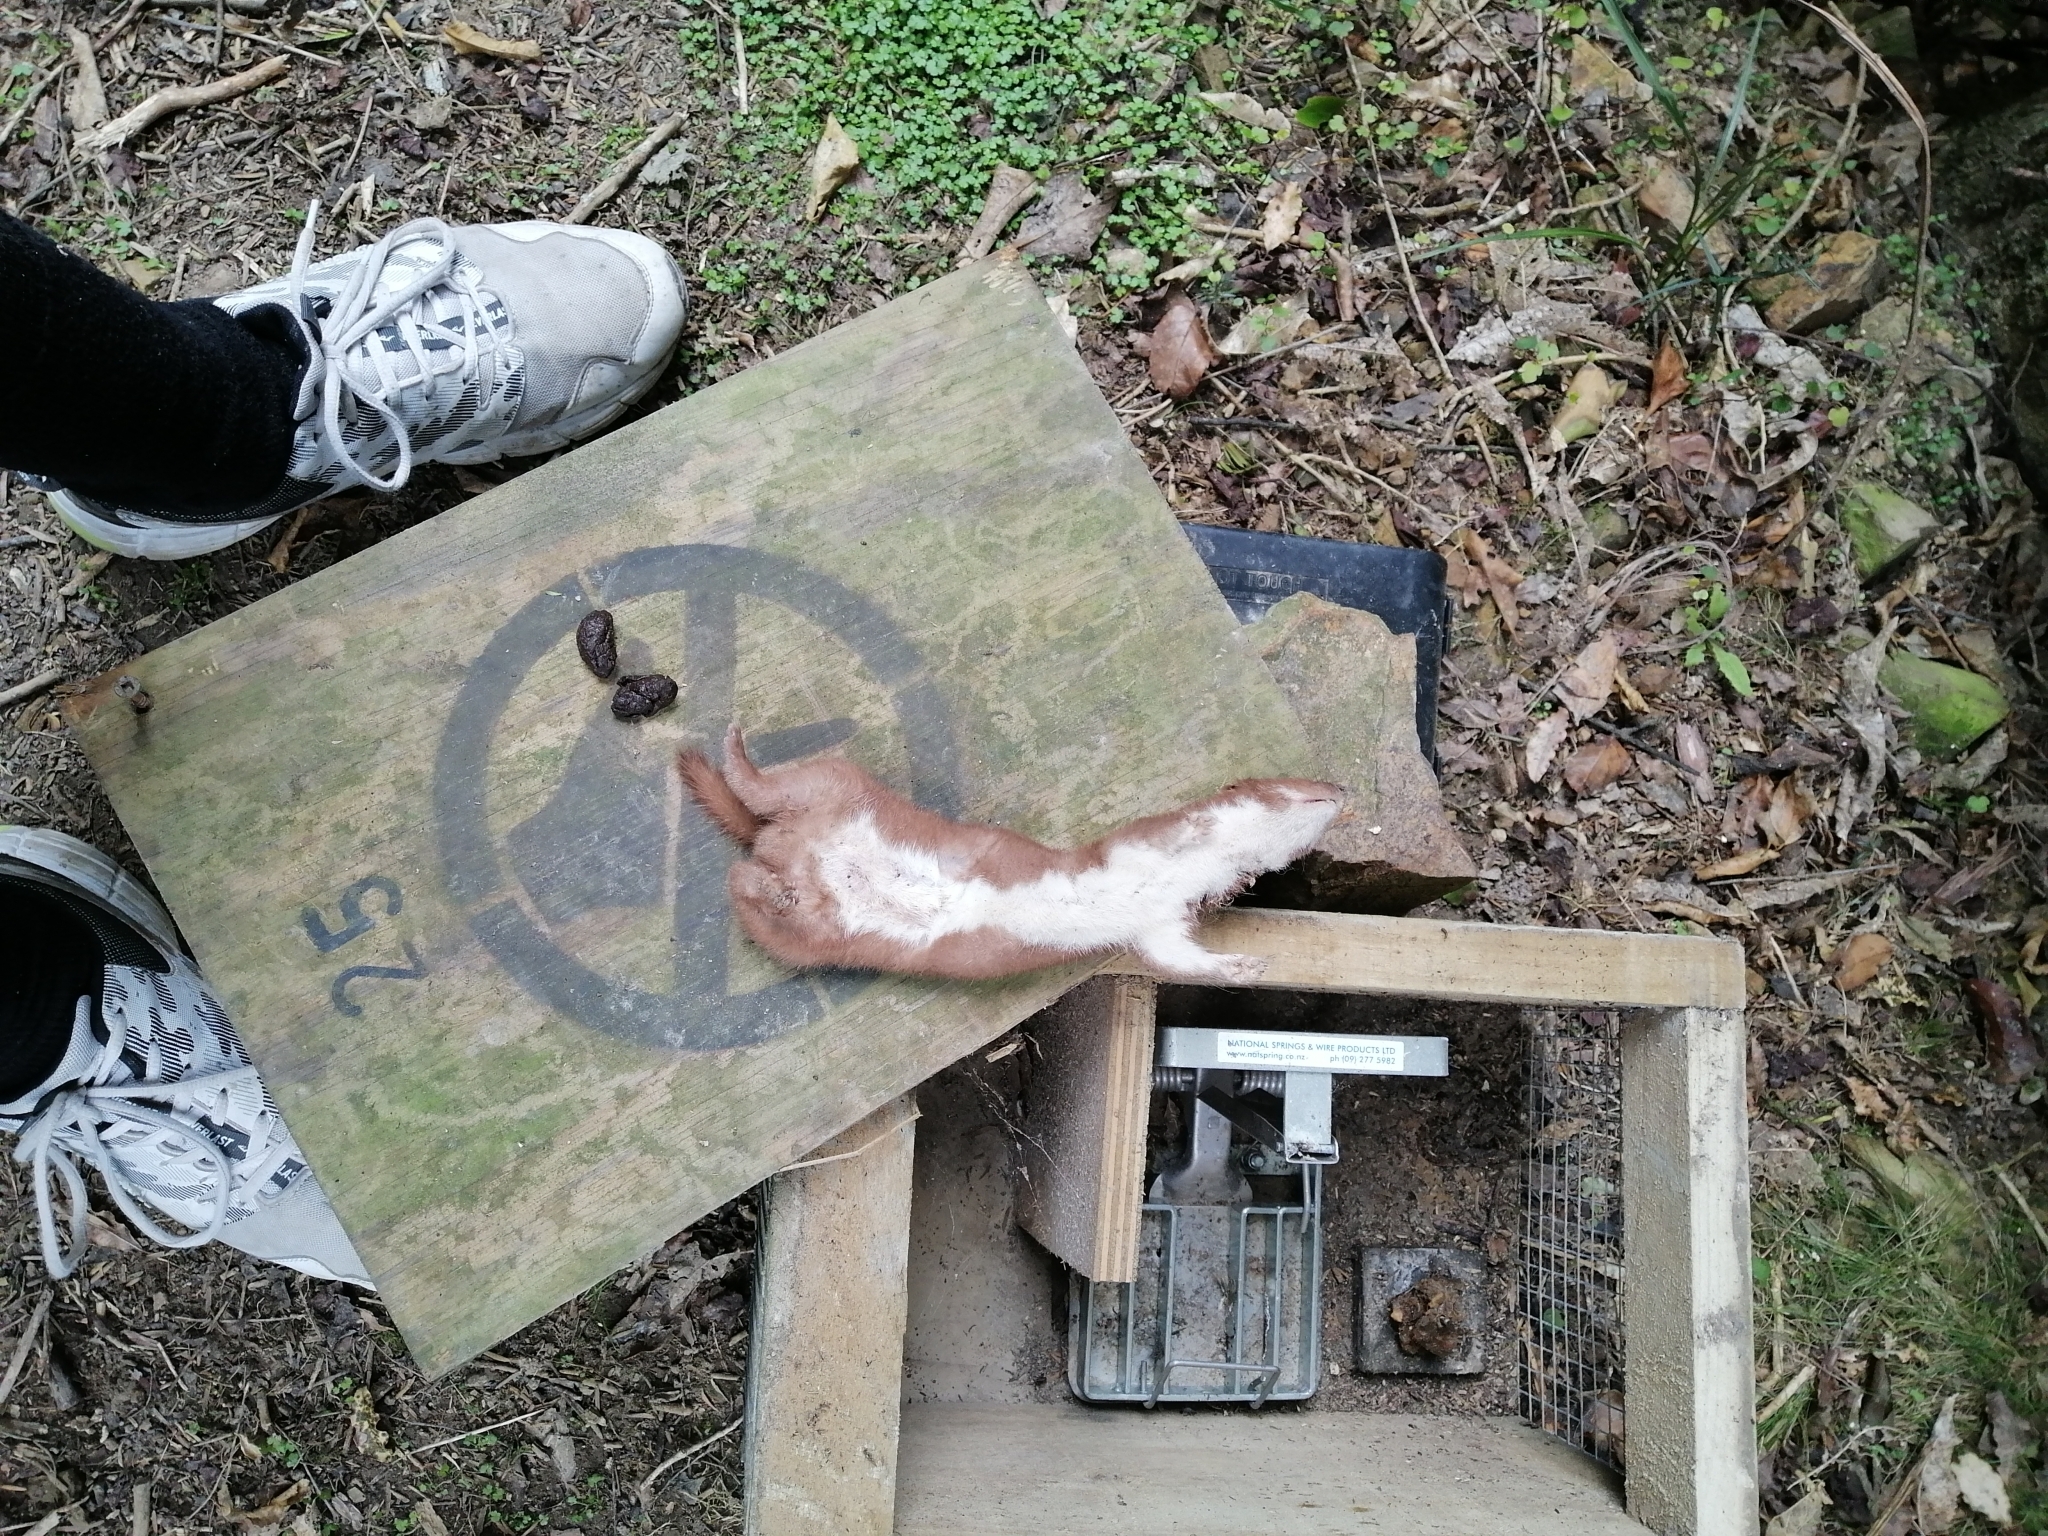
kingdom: Animalia
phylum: Chordata
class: Mammalia
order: Carnivora
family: Mustelidae
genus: Mustela
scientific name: Mustela nivalis
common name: Least weasel
